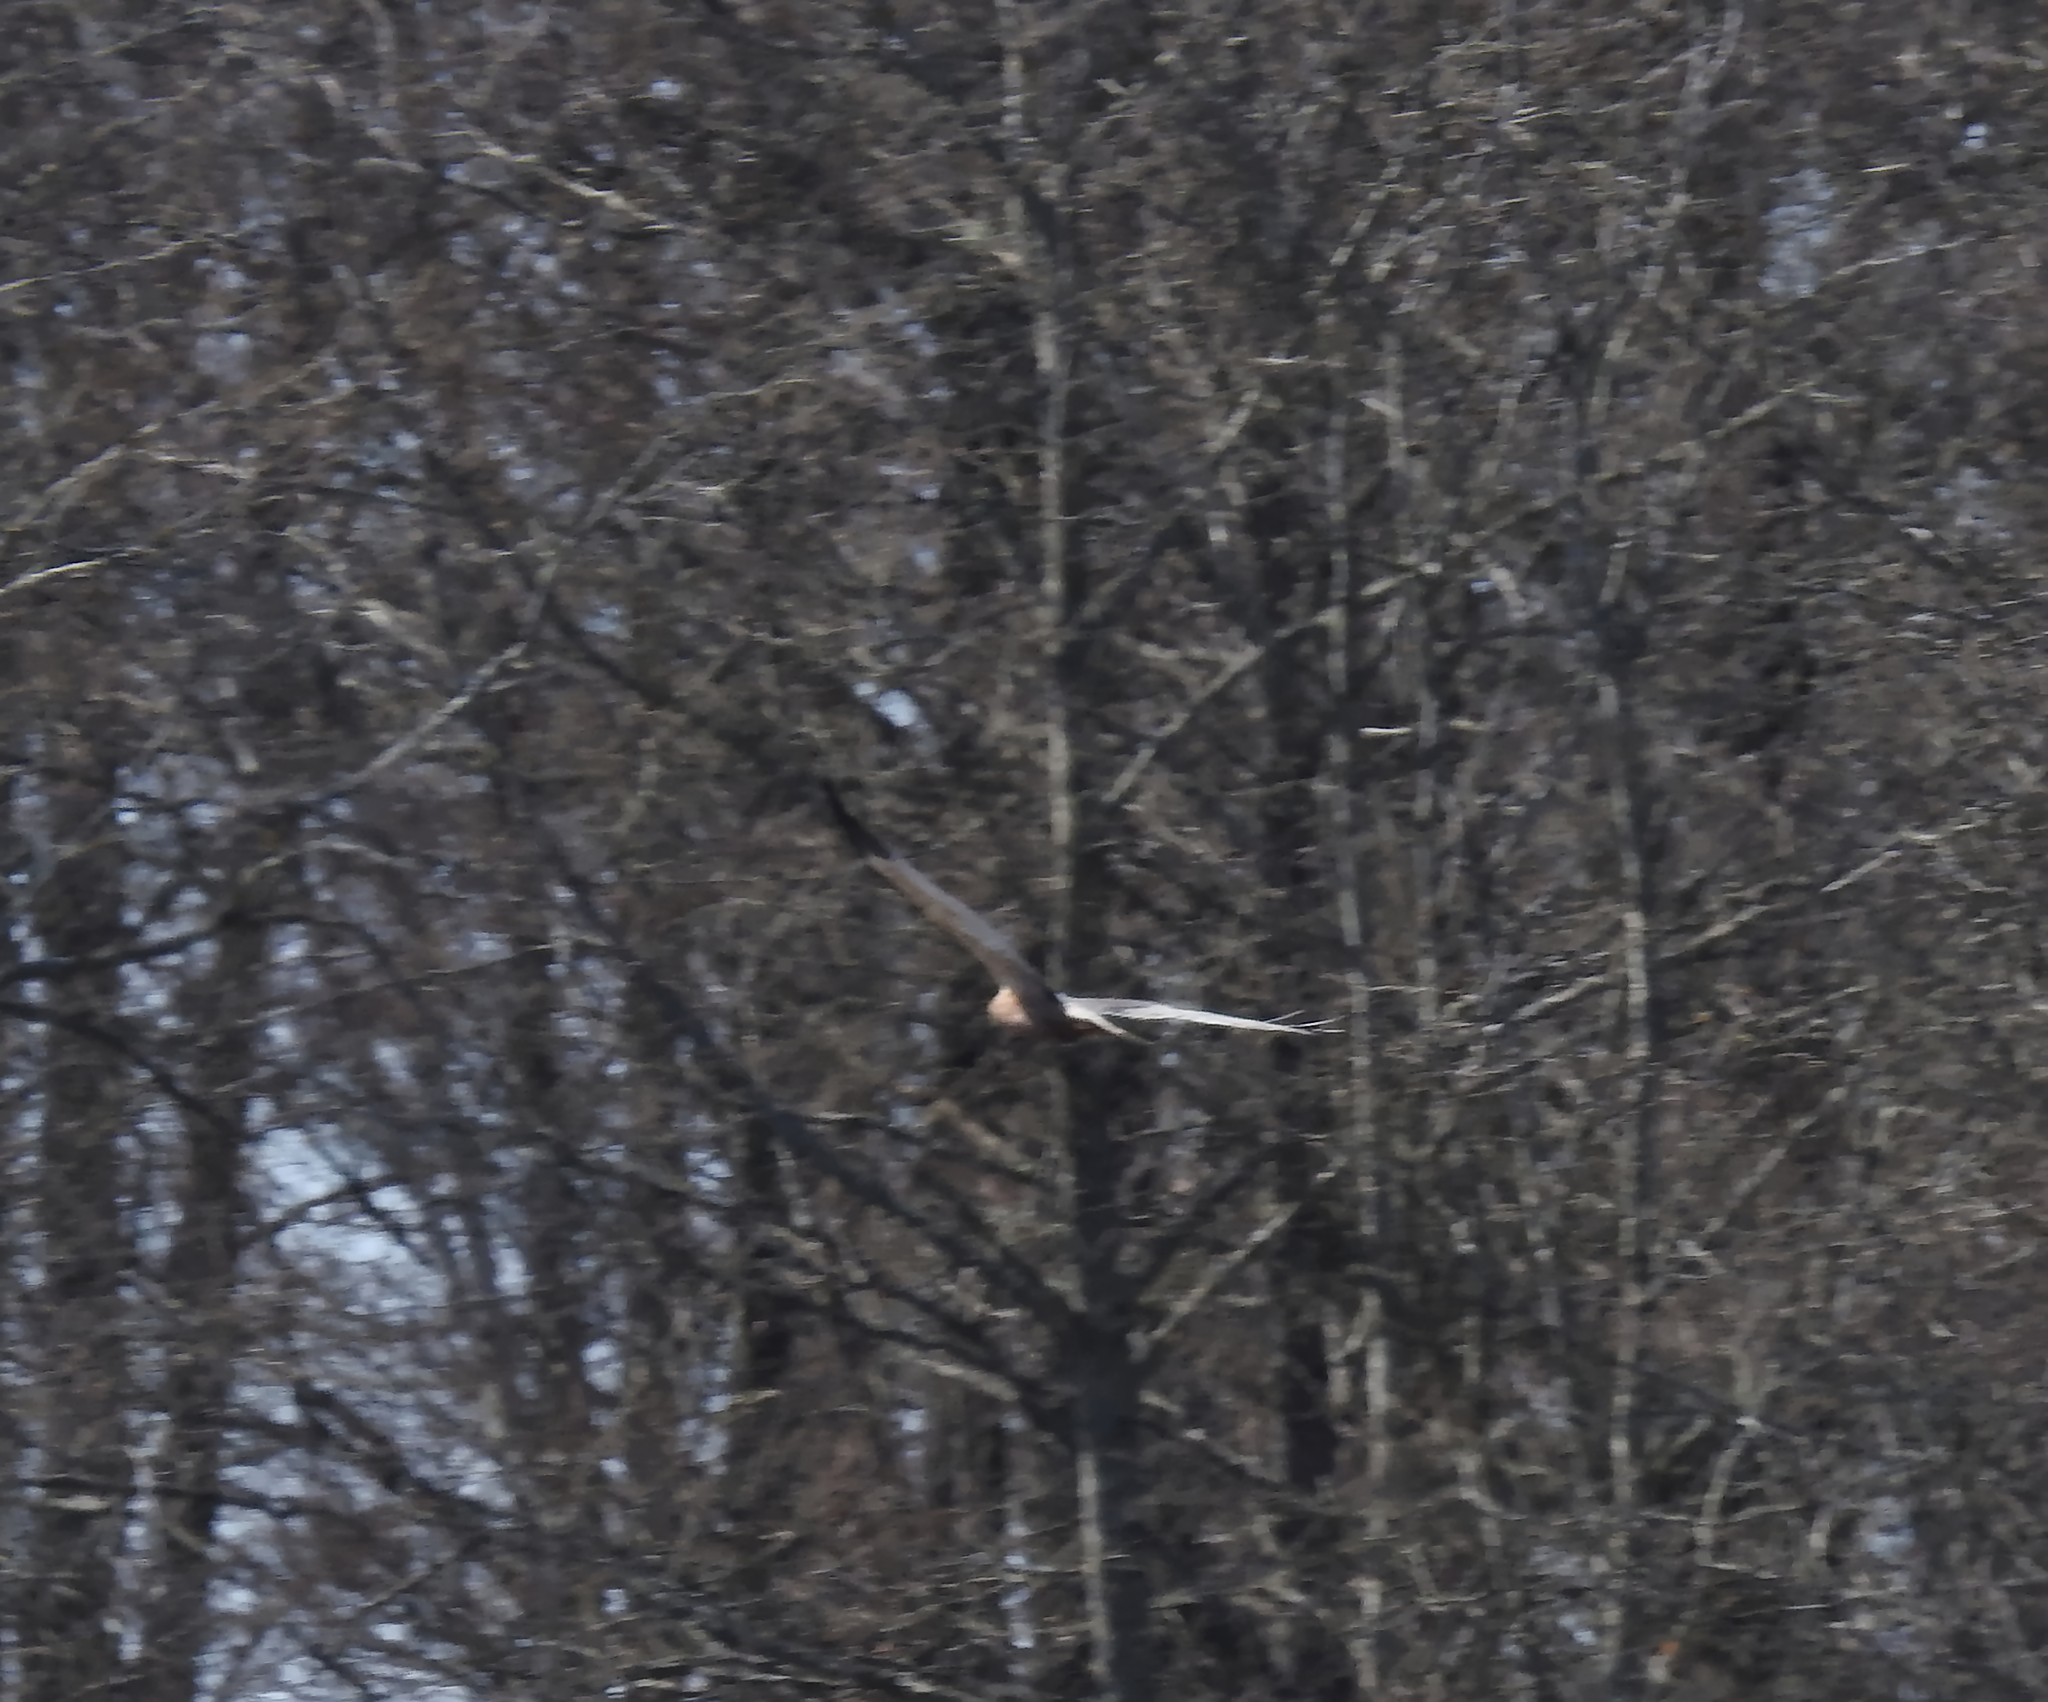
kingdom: Animalia
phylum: Chordata
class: Aves
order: Accipitriformes
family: Accipitridae
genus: Circus
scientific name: Circus aeruginosus
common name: Western marsh harrier
